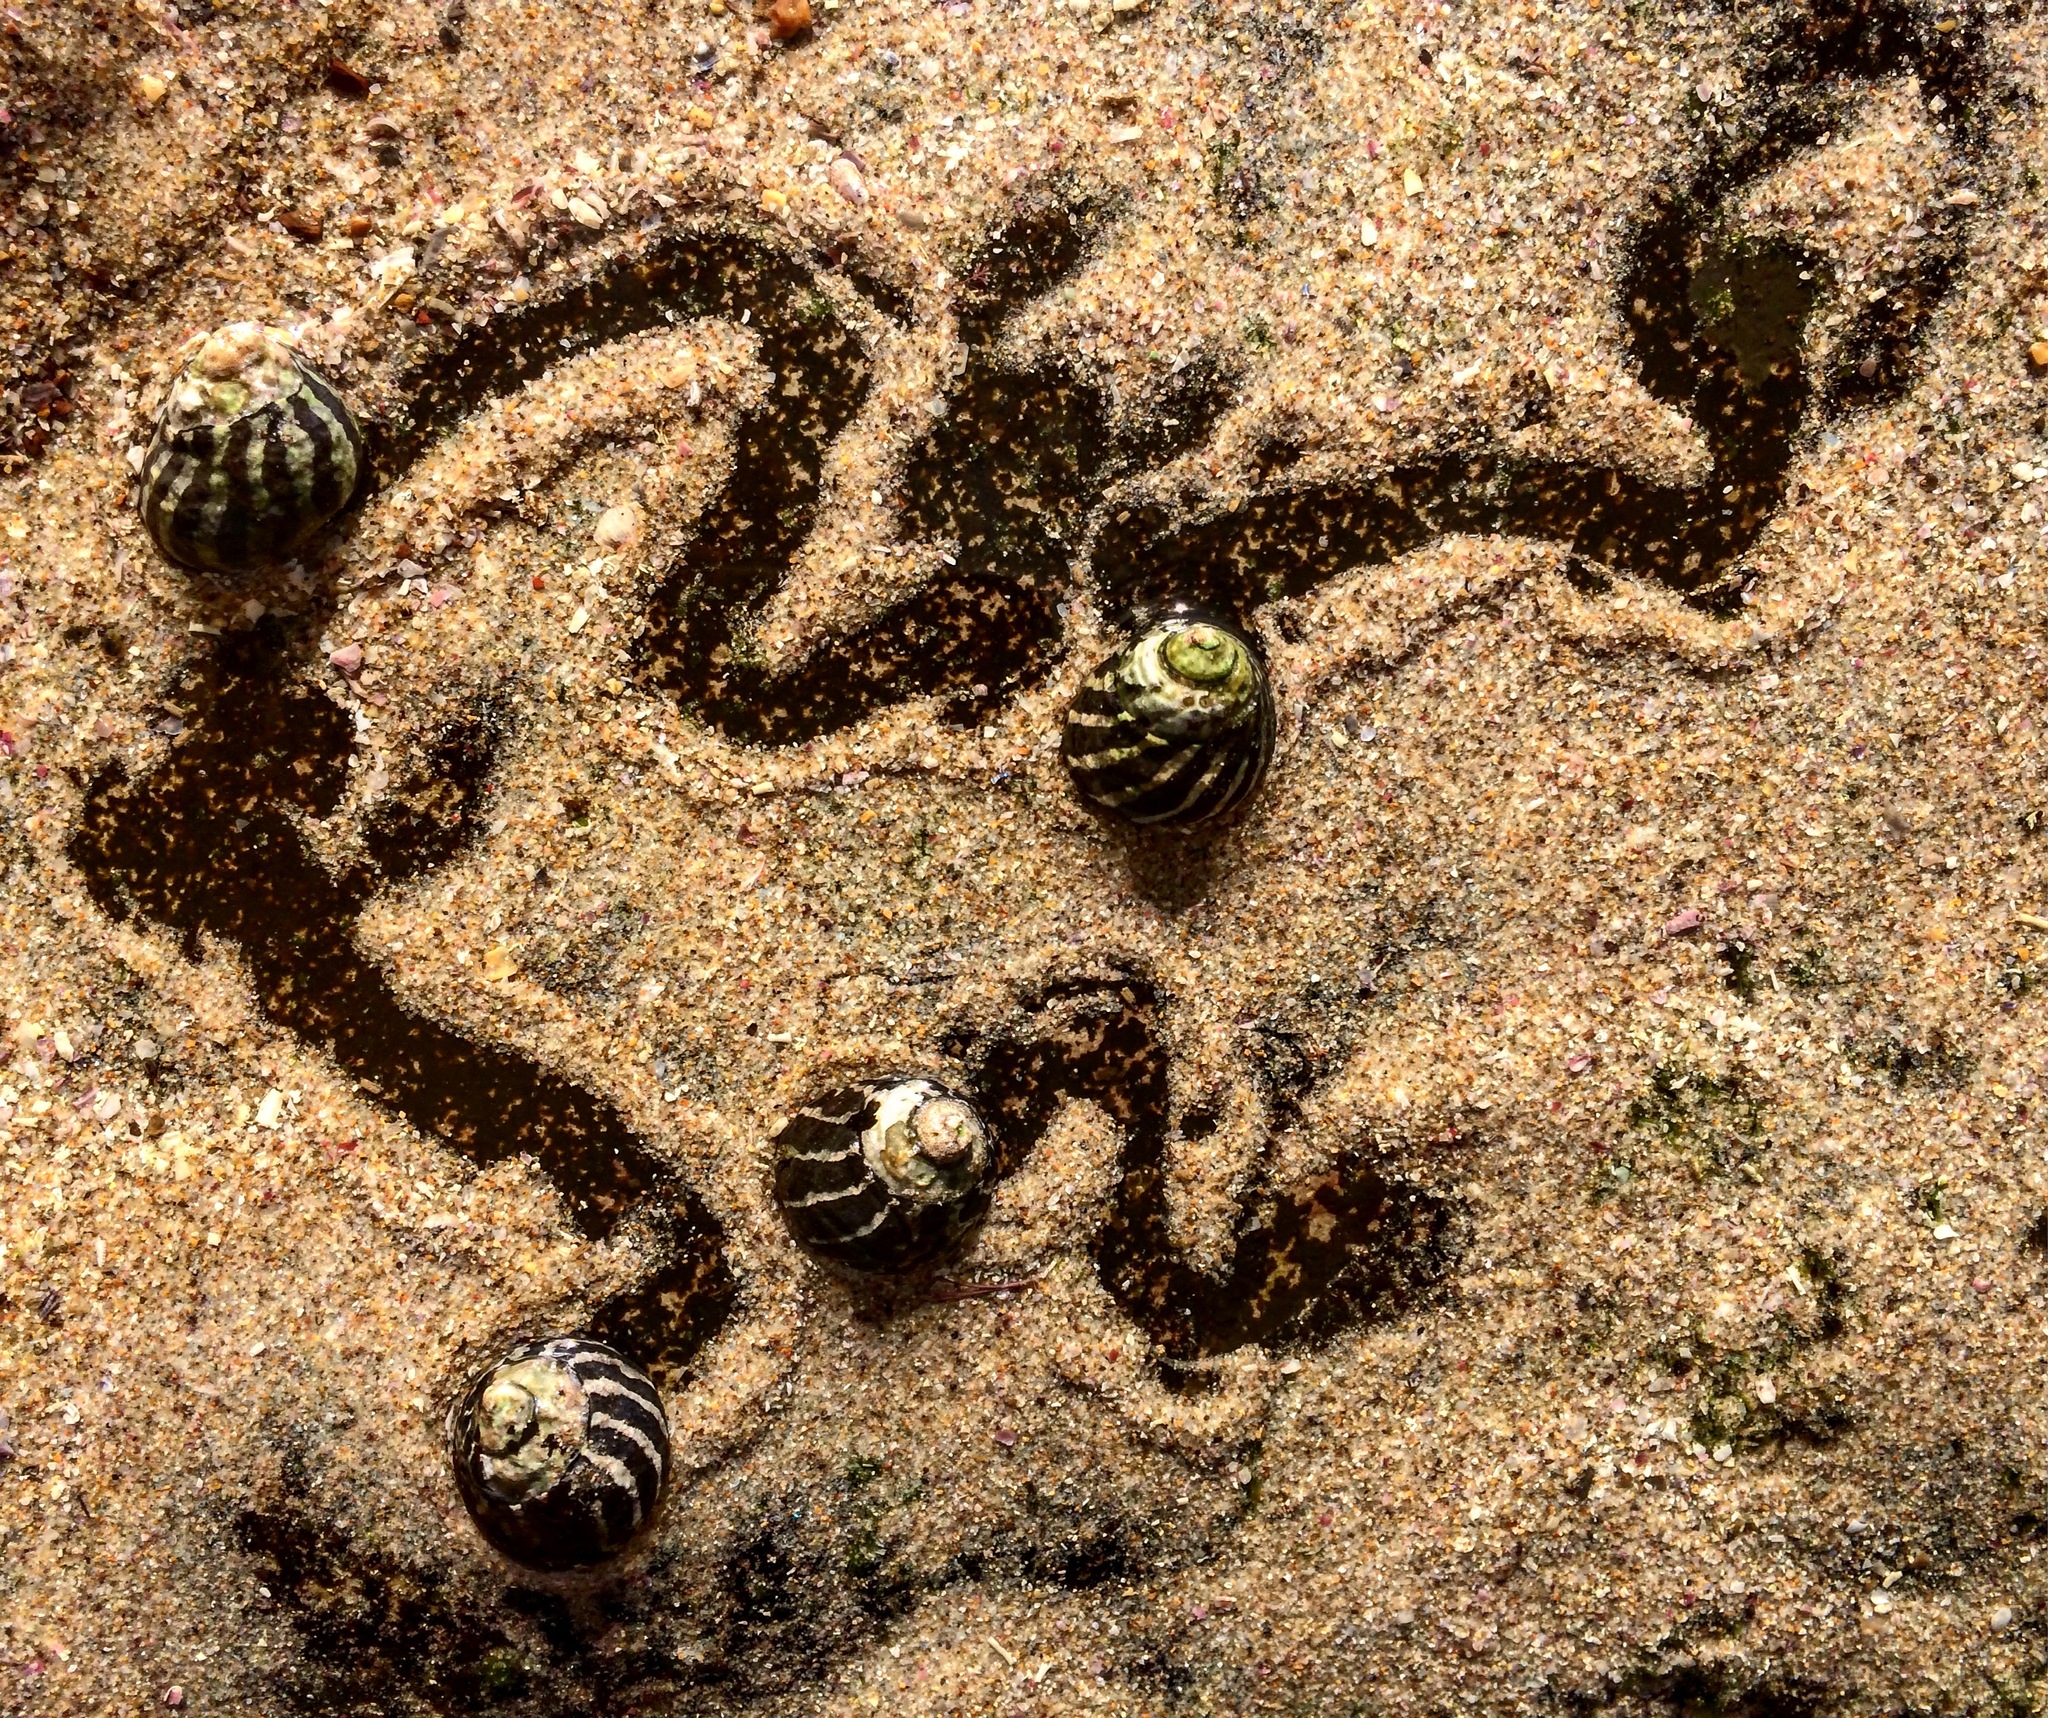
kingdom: Animalia
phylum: Mollusca
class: Gastropoda
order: Trochida
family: Trochidae
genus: Austrocochlea
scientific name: Austrocochlea porcata
